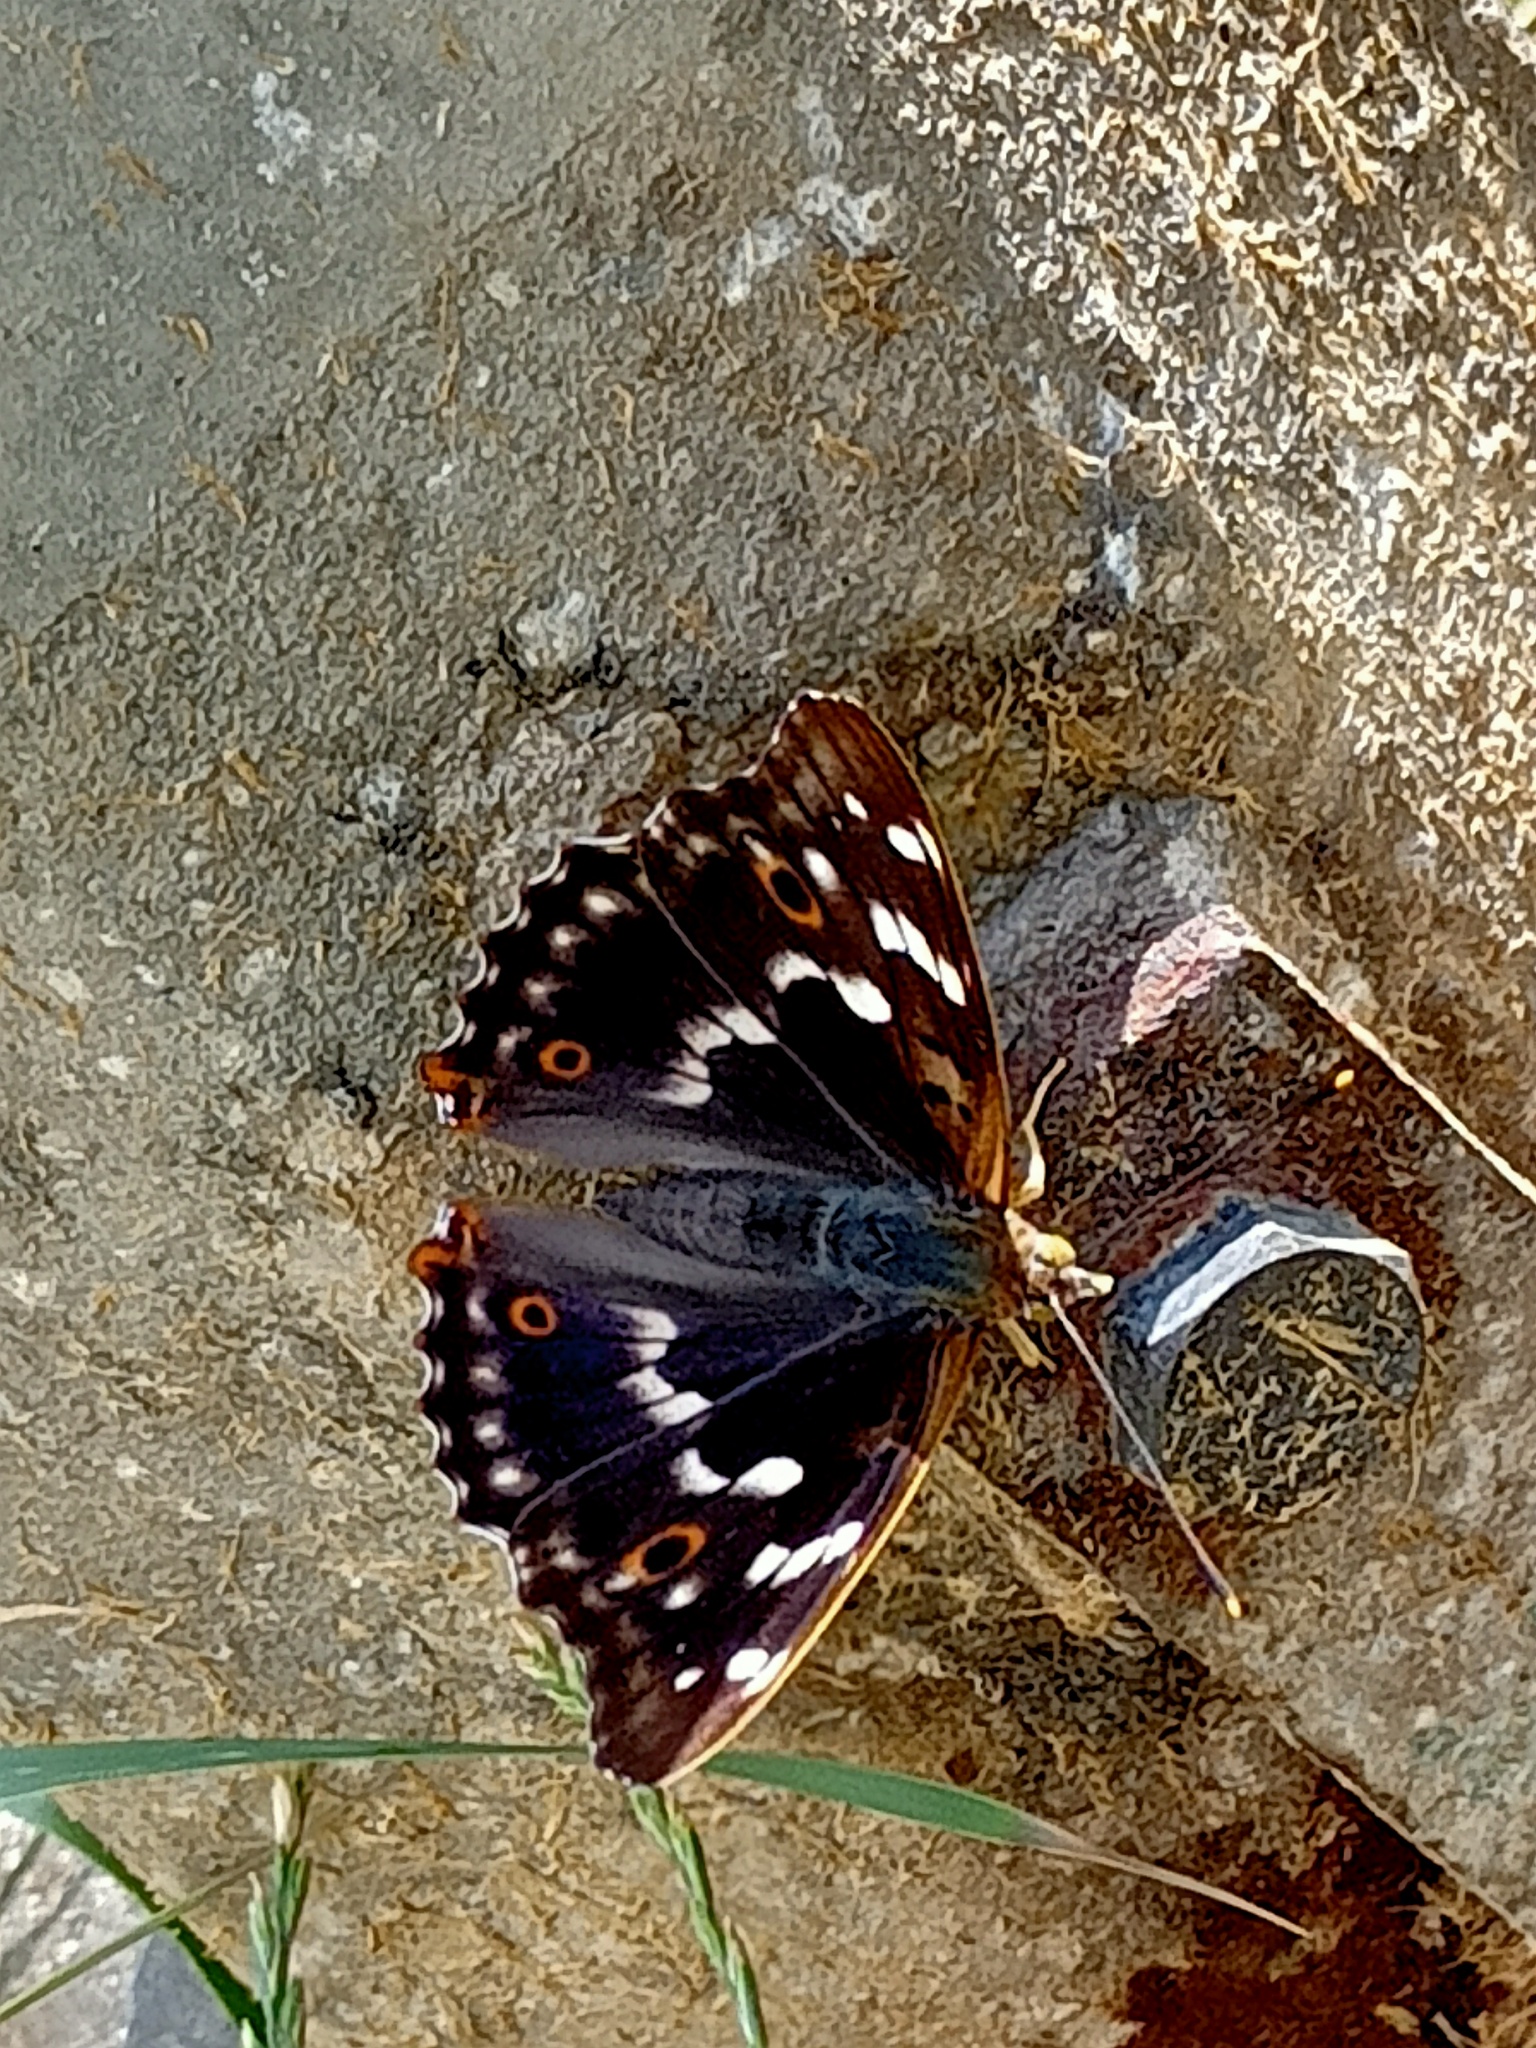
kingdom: Animalia
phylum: Arthropoda
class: Insecta
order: Lepidoptera
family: Nymphalidae
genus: Apatura
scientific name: Apatura ilia
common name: Lesser purple emperor
